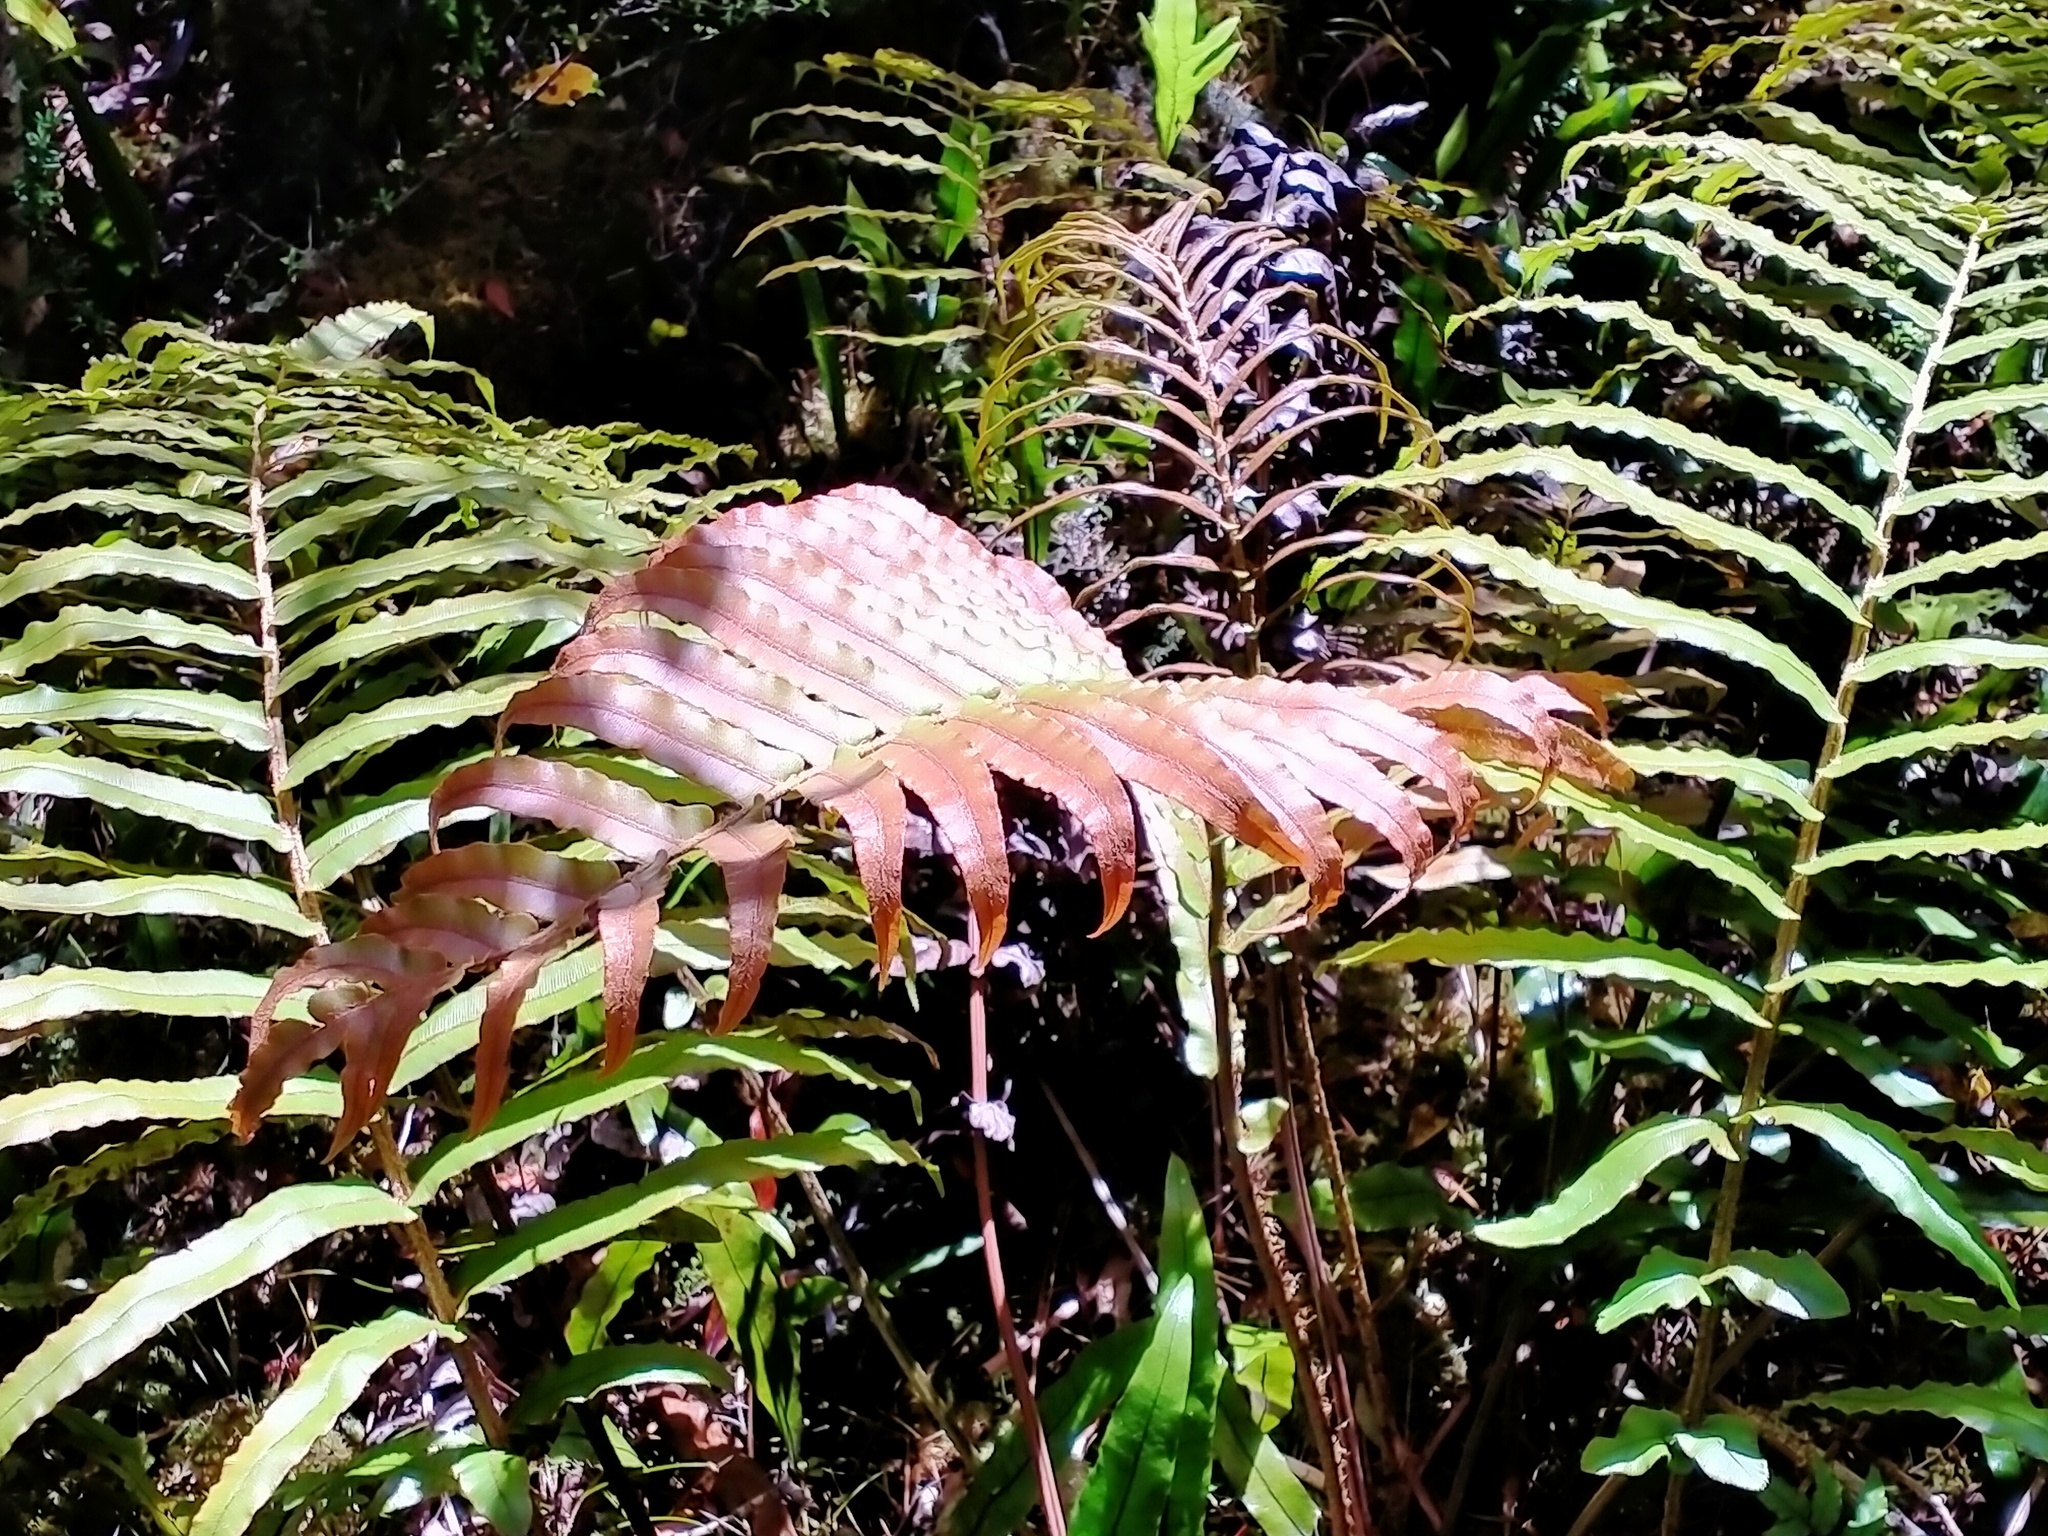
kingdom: Plantae
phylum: Tracheophyta
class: Polypodiopsida
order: Polypodiales
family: Blechnaceae
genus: Parablechnum
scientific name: Parablechnum novae-zelandiae
